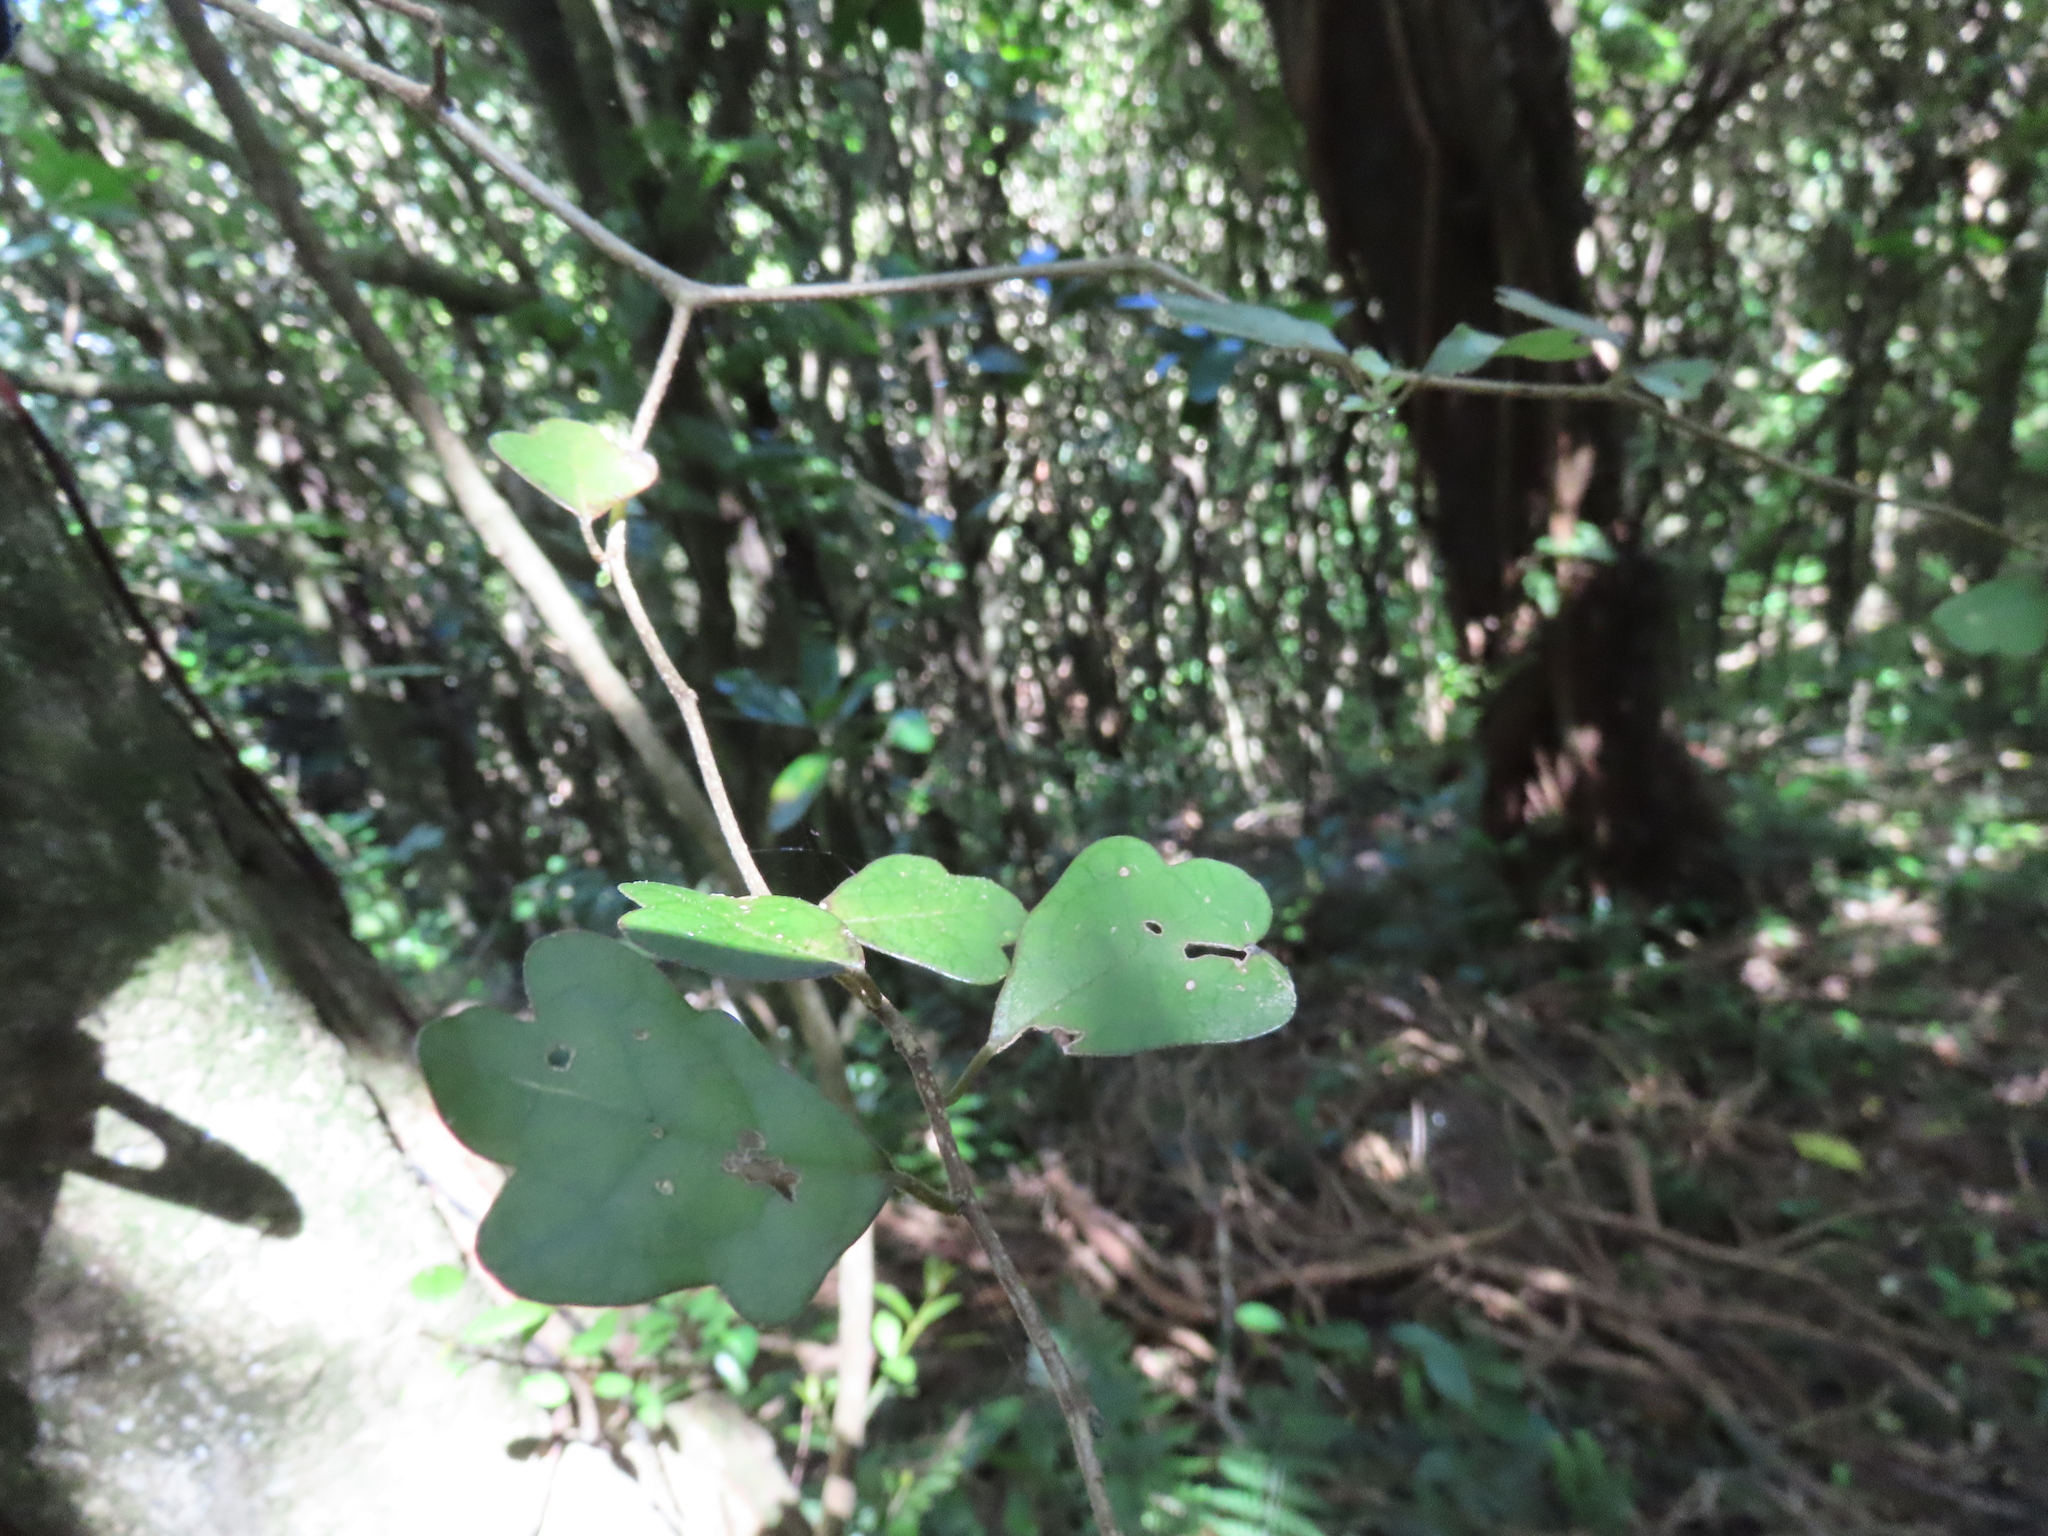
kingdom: Plantae
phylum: Tracheophyta
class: Magnoliopsida
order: Apiales
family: Pennantiaceae
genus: Pennantia
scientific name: Pennantia corymbosa
